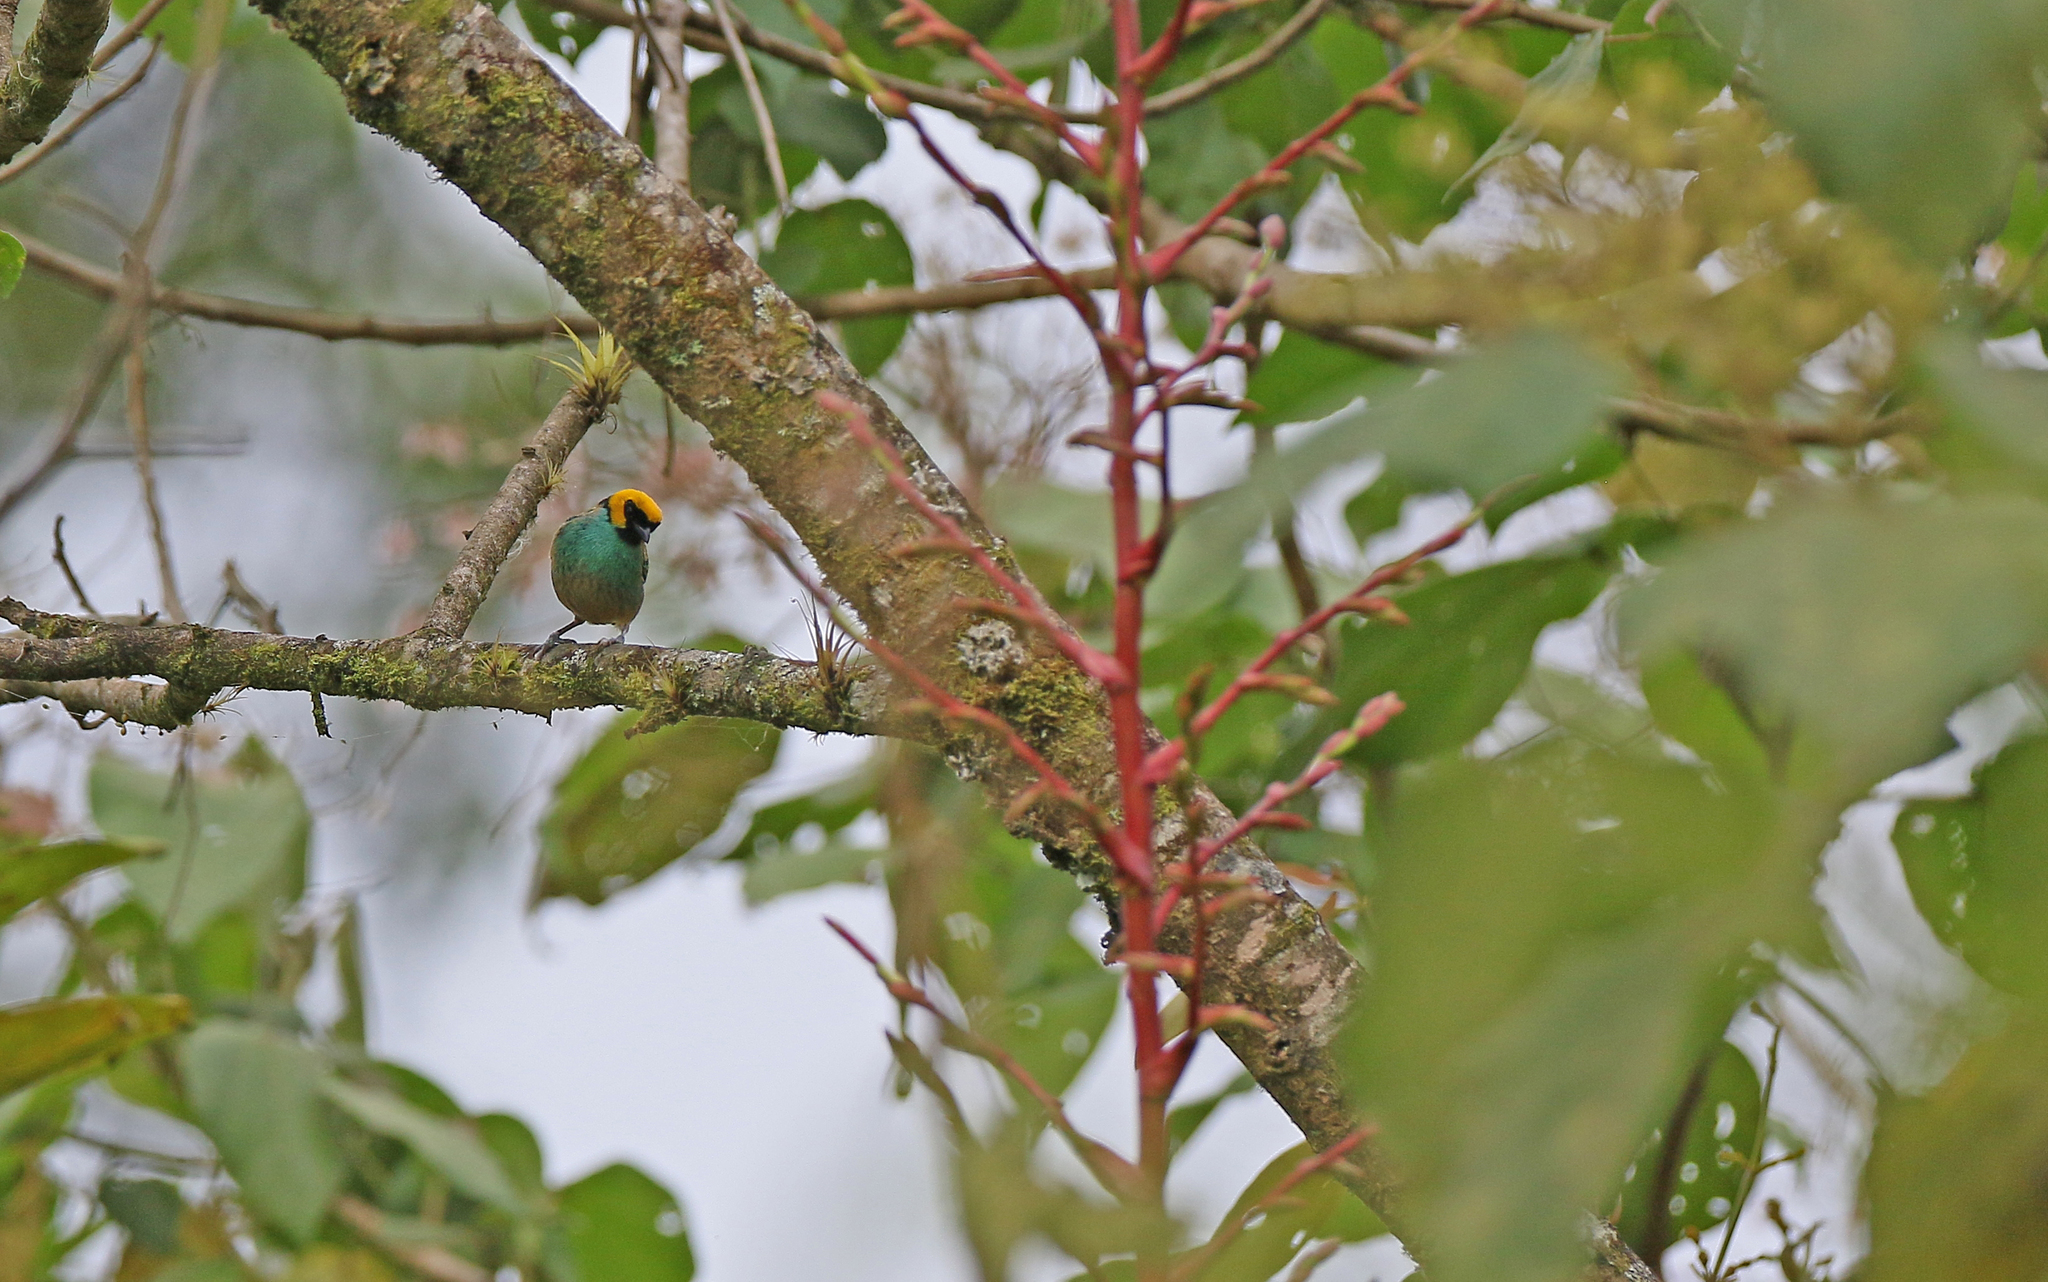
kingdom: Animalia
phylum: Chordata
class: Aves
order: Passeriformes
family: Thraupidae
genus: Tangara
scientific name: Tangara xanthocephala
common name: Saffron-crowned tanager
